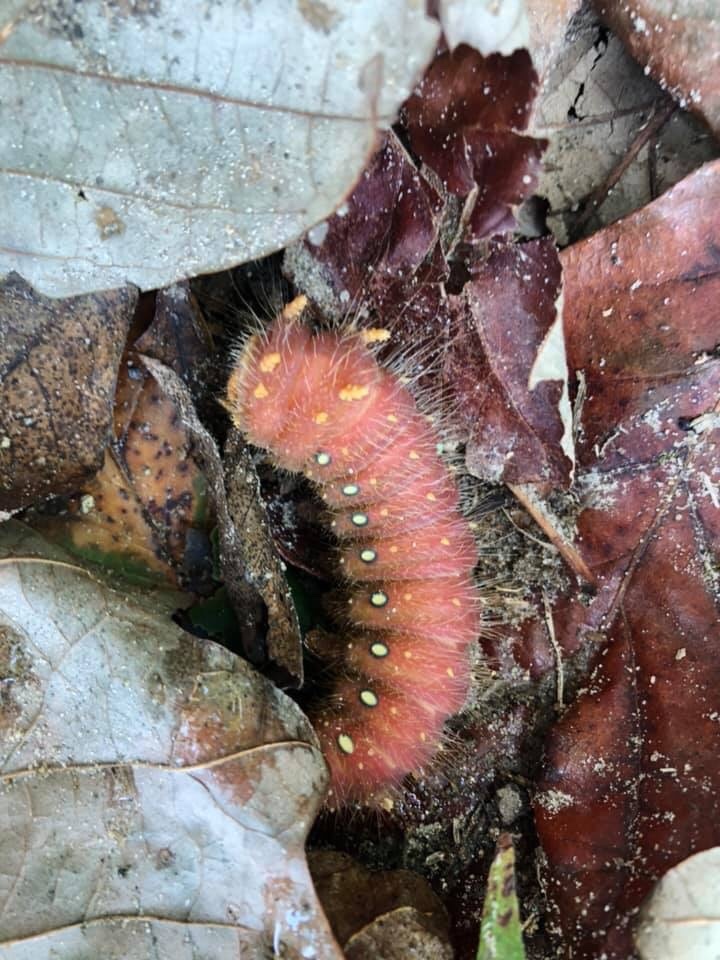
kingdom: Animalia
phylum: Arthropoda
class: Insecta
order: Lepidoptera
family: Saturniidae
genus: Eacles
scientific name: Eacles imperialis
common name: Imperial moth
